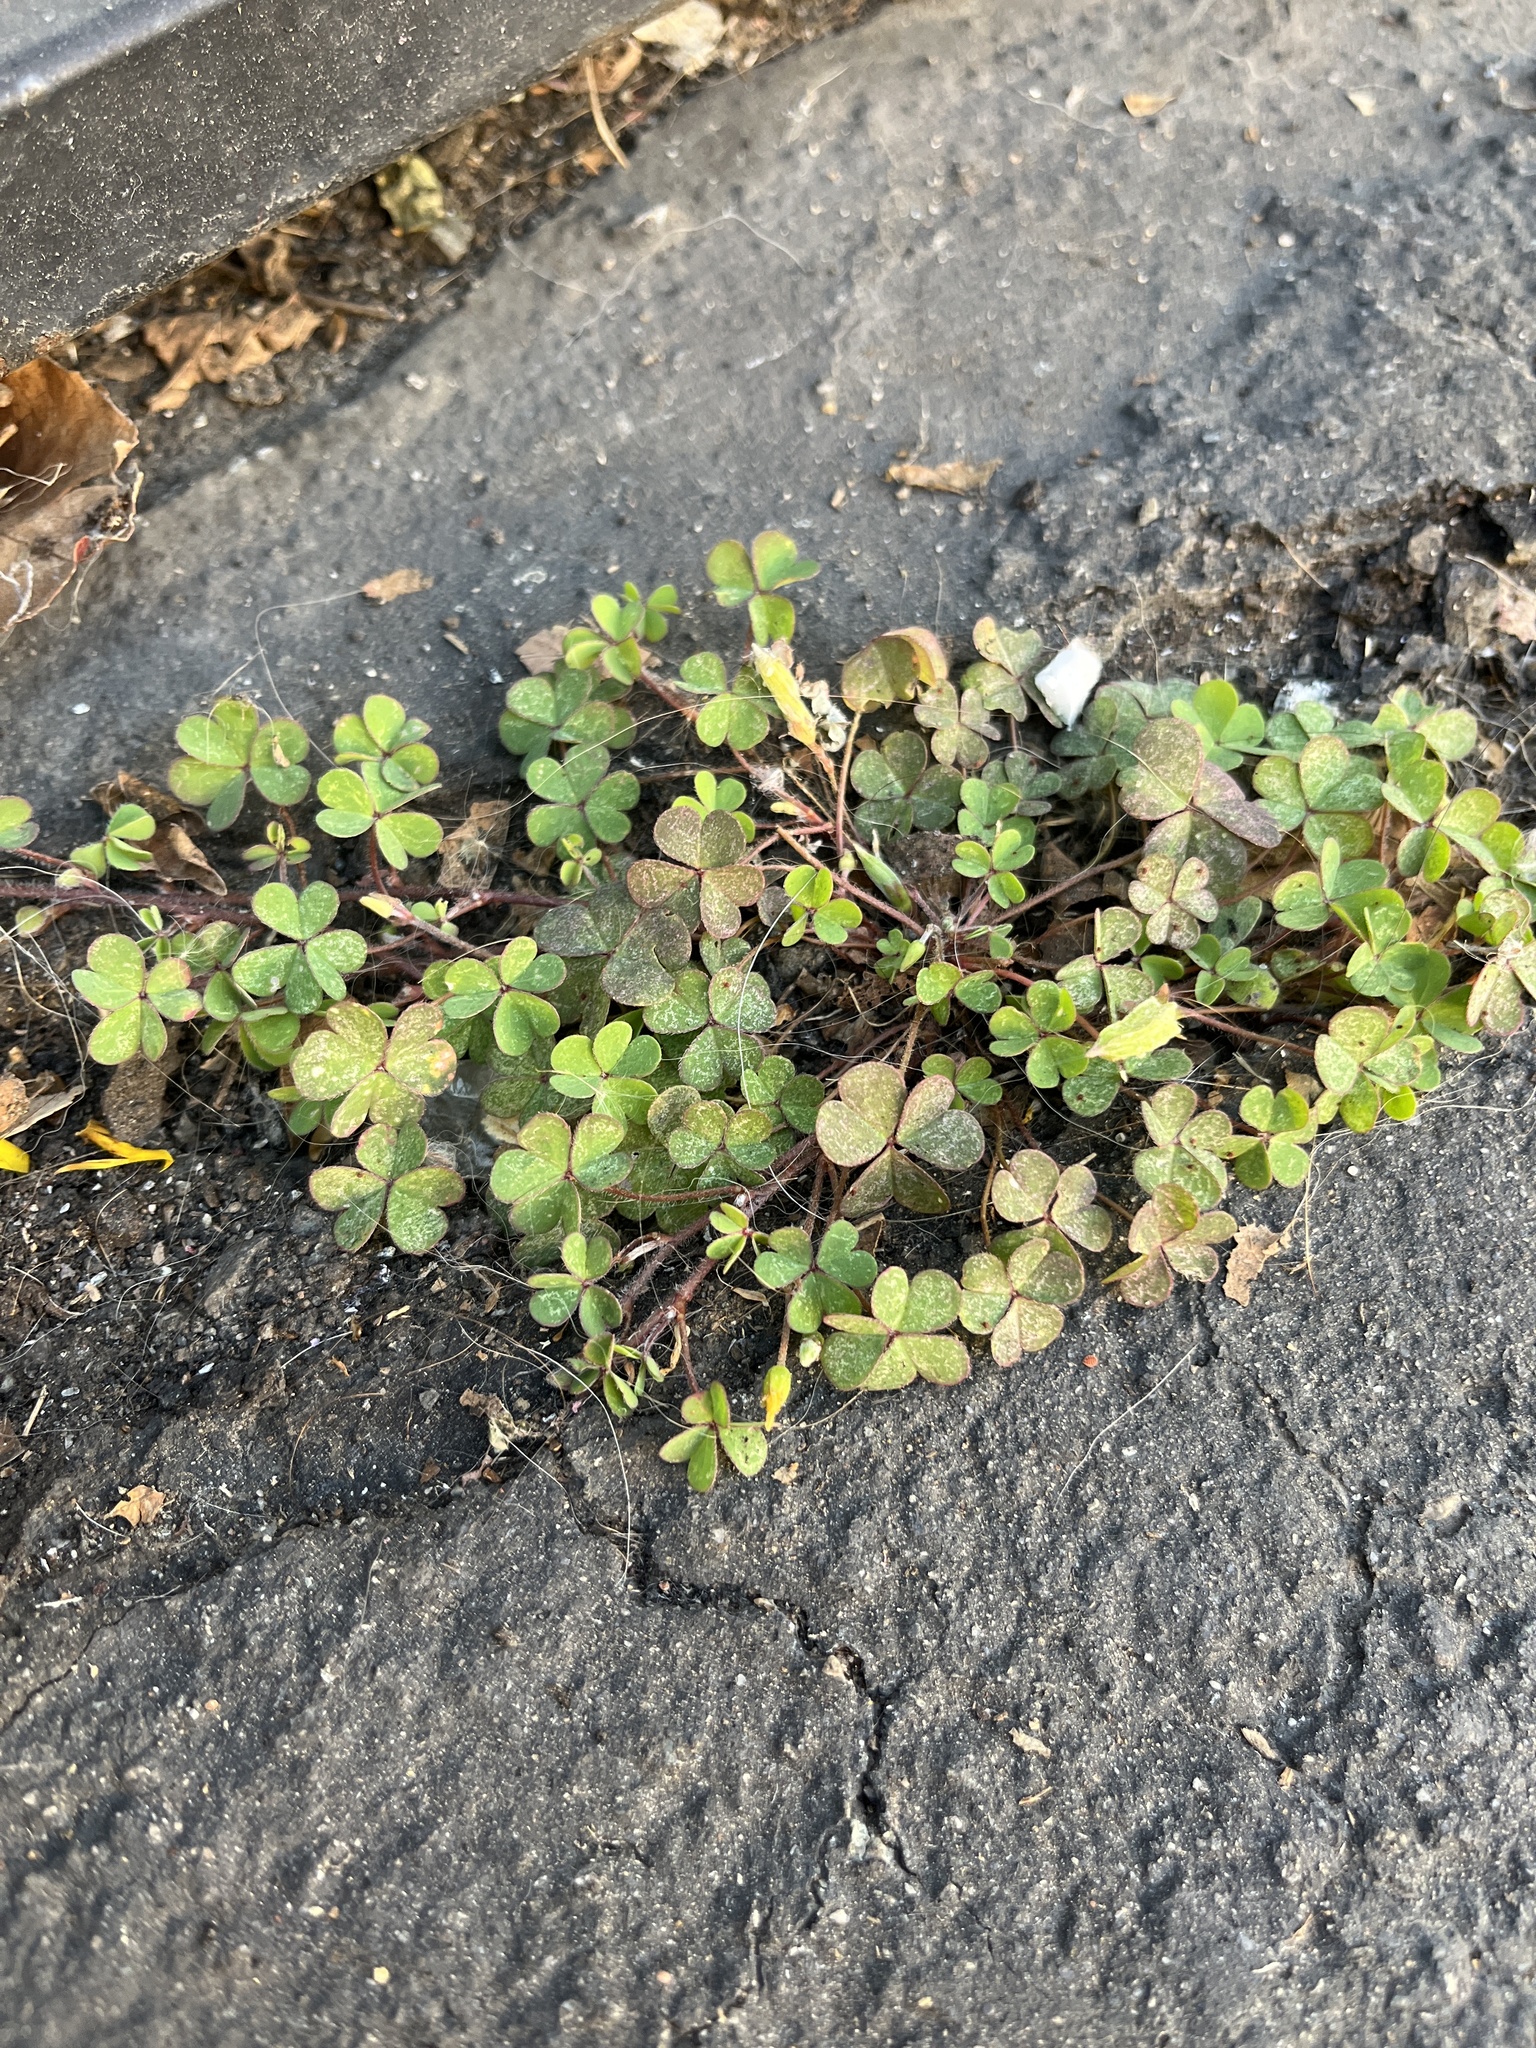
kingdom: Plantae
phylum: Tracheophyta
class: Magnoliopsida
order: Oxalidales
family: Oxalidaceae
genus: Oxalis
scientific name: Oxalis corniculata
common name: Procumbent yellow-sorrel
